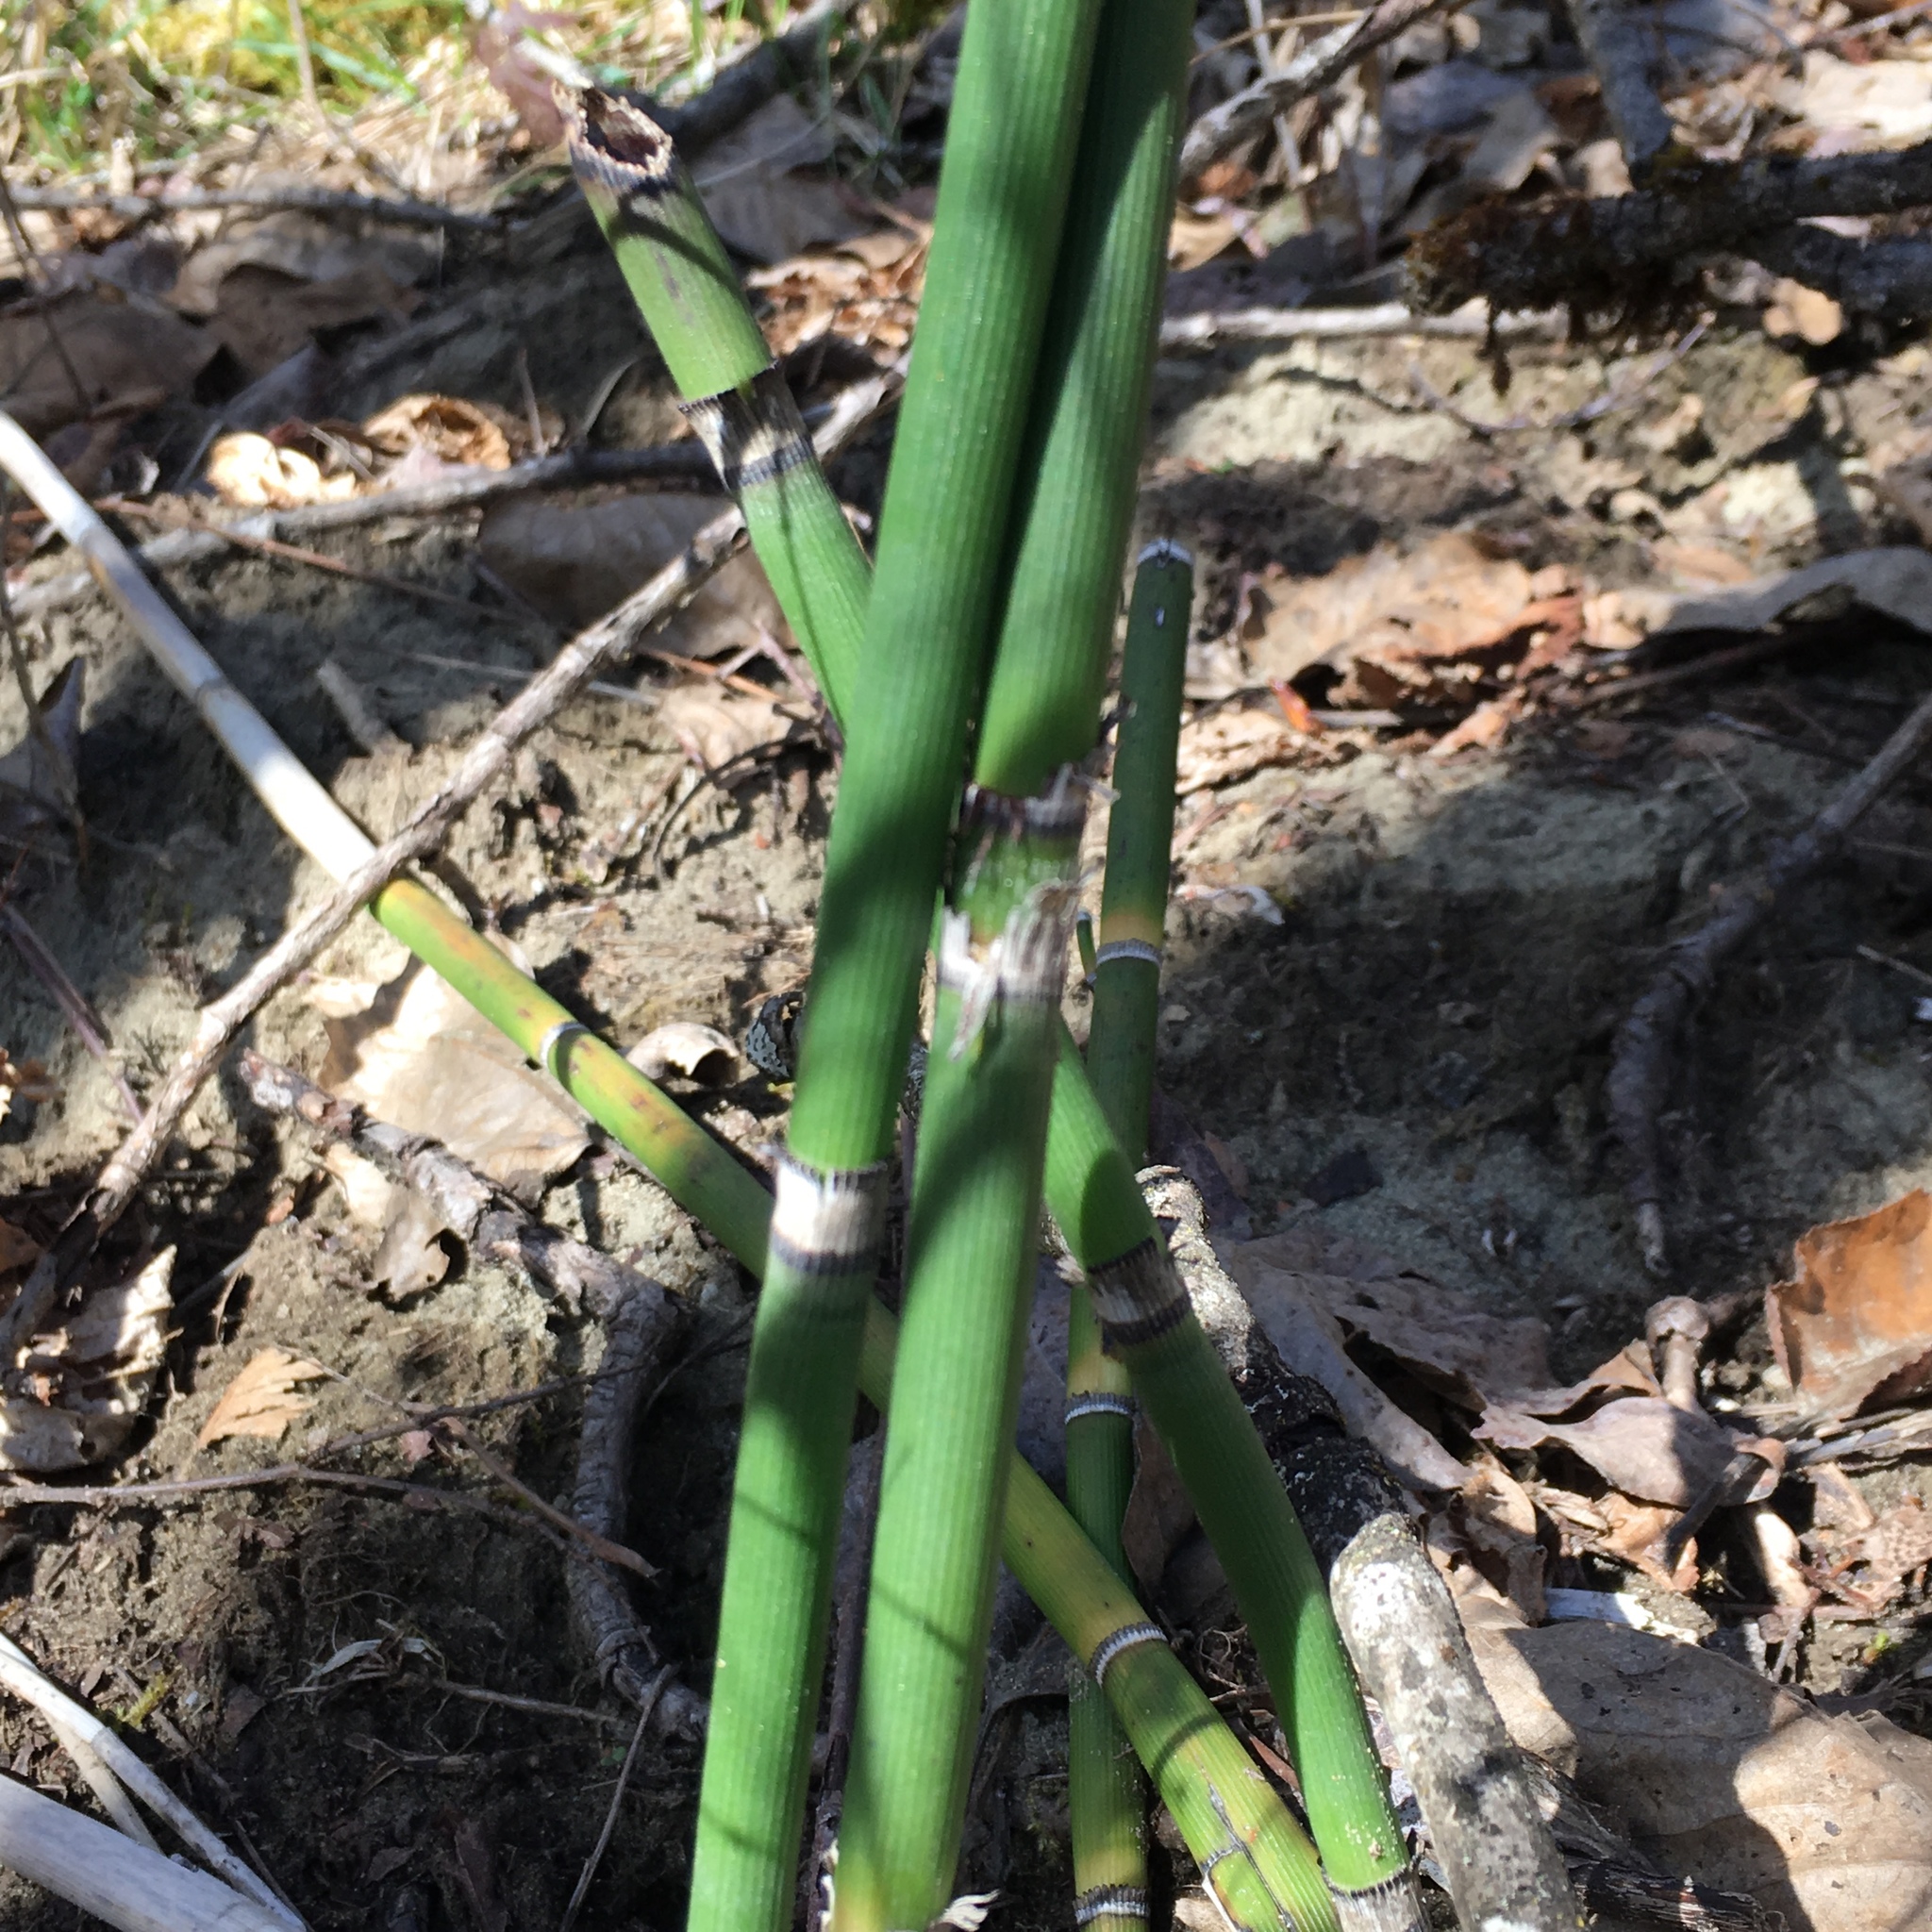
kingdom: Plantae
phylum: Tracheophyta
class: Polypodiopsida
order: Equisetales
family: Equisetaceae
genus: Equisetum
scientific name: Equisetum hyemale
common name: Rough horsetail
